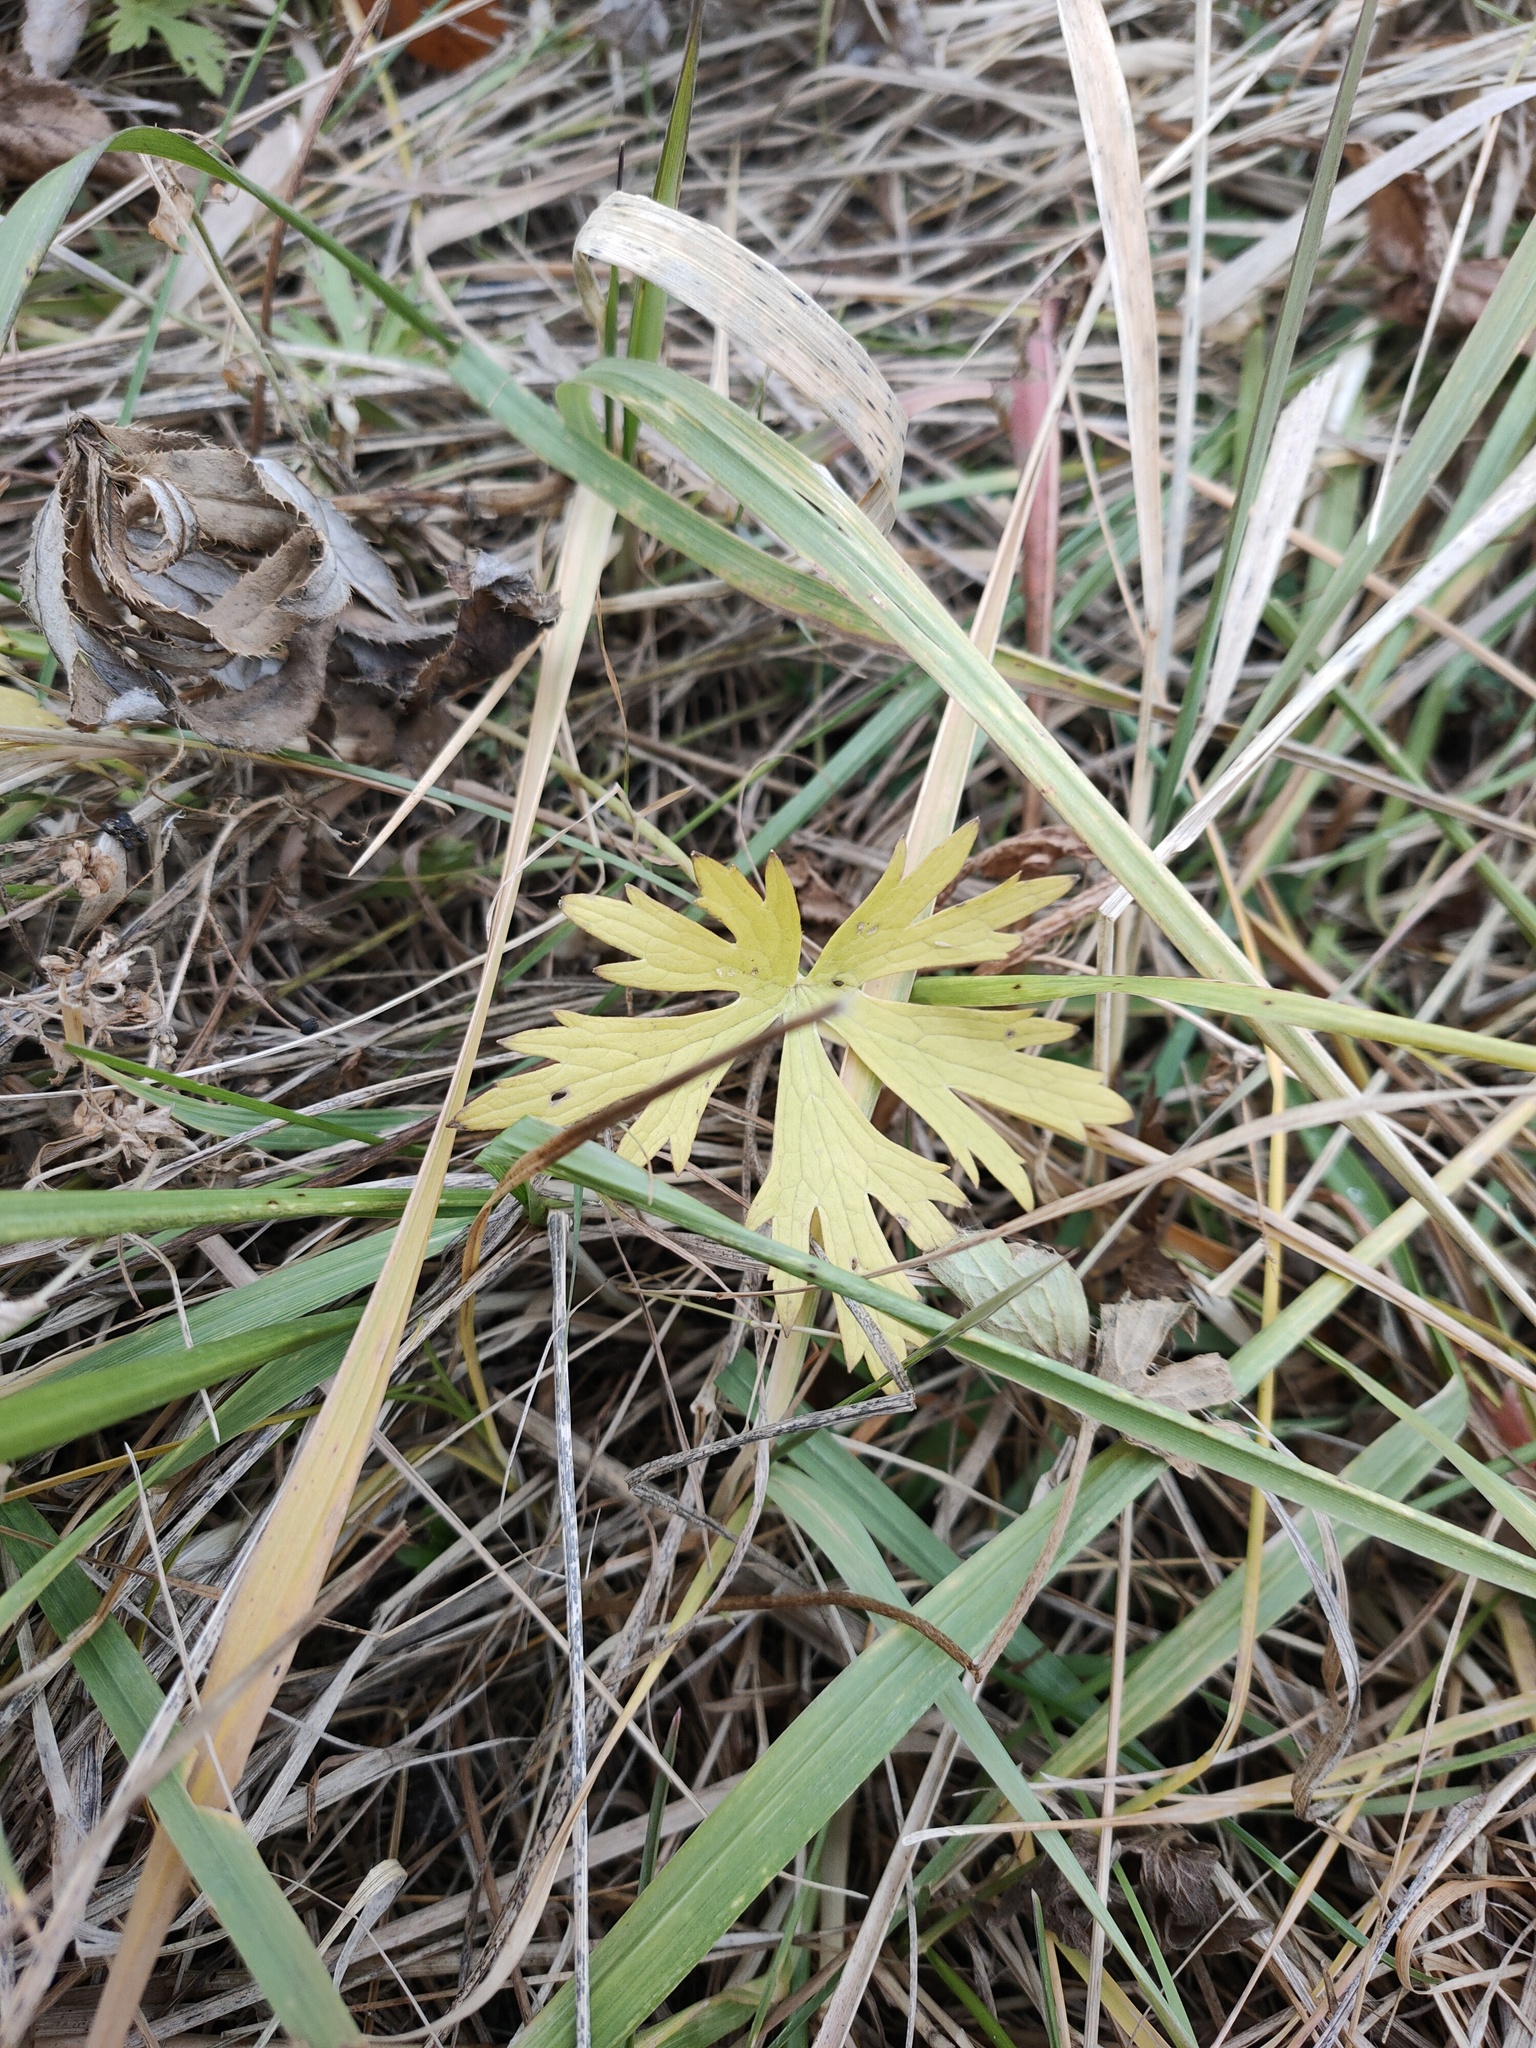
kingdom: Plantae
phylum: Tracheophyta
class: Magnoliopsida
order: Ranunculales
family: Ranunculaceae
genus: Ranunculus
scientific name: Ranunculus acris
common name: Meadow buttercup
